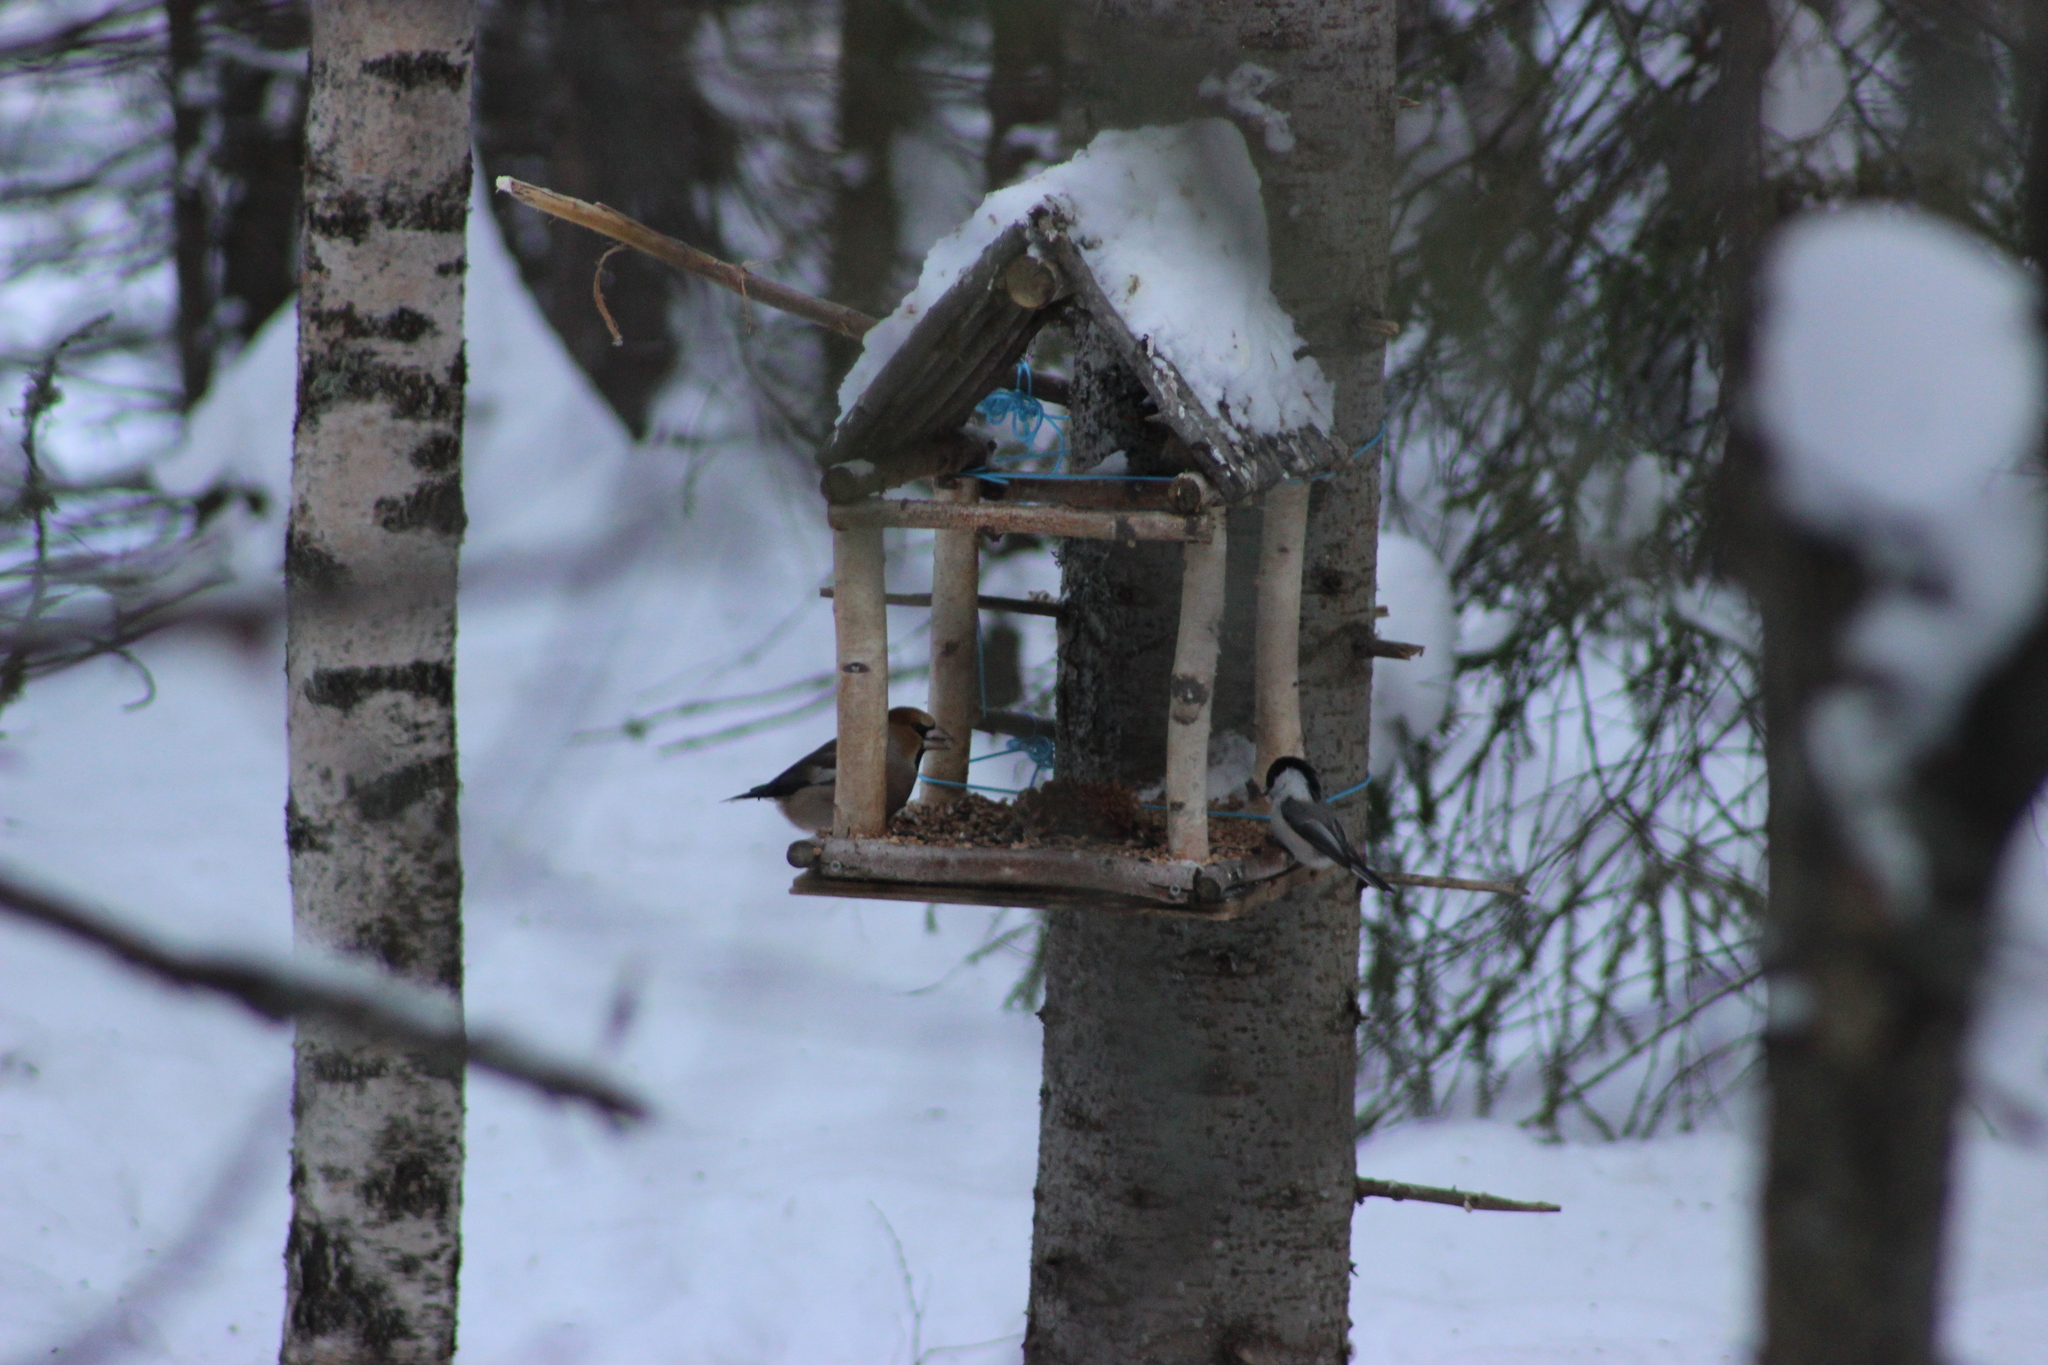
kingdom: Animalia
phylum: Chordata
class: Aves
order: Passeriformes
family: Fringillidae
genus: Coccothraustes
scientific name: Coccothraustes coccothraustes
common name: Hawfinch
